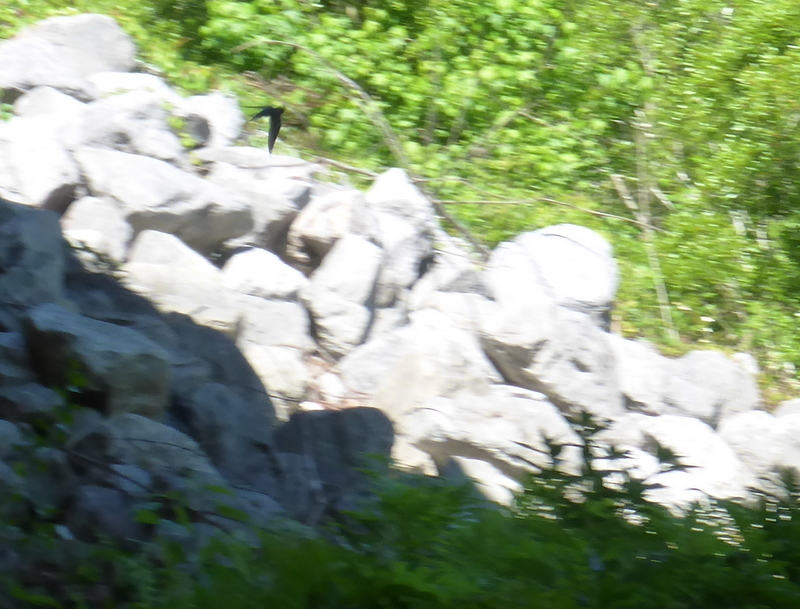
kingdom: Animalia
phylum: Chordata
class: Aves
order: Passeriformes
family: Hirundinidae
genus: Hirundo
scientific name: Hirundo rustica
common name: Barn swallow
